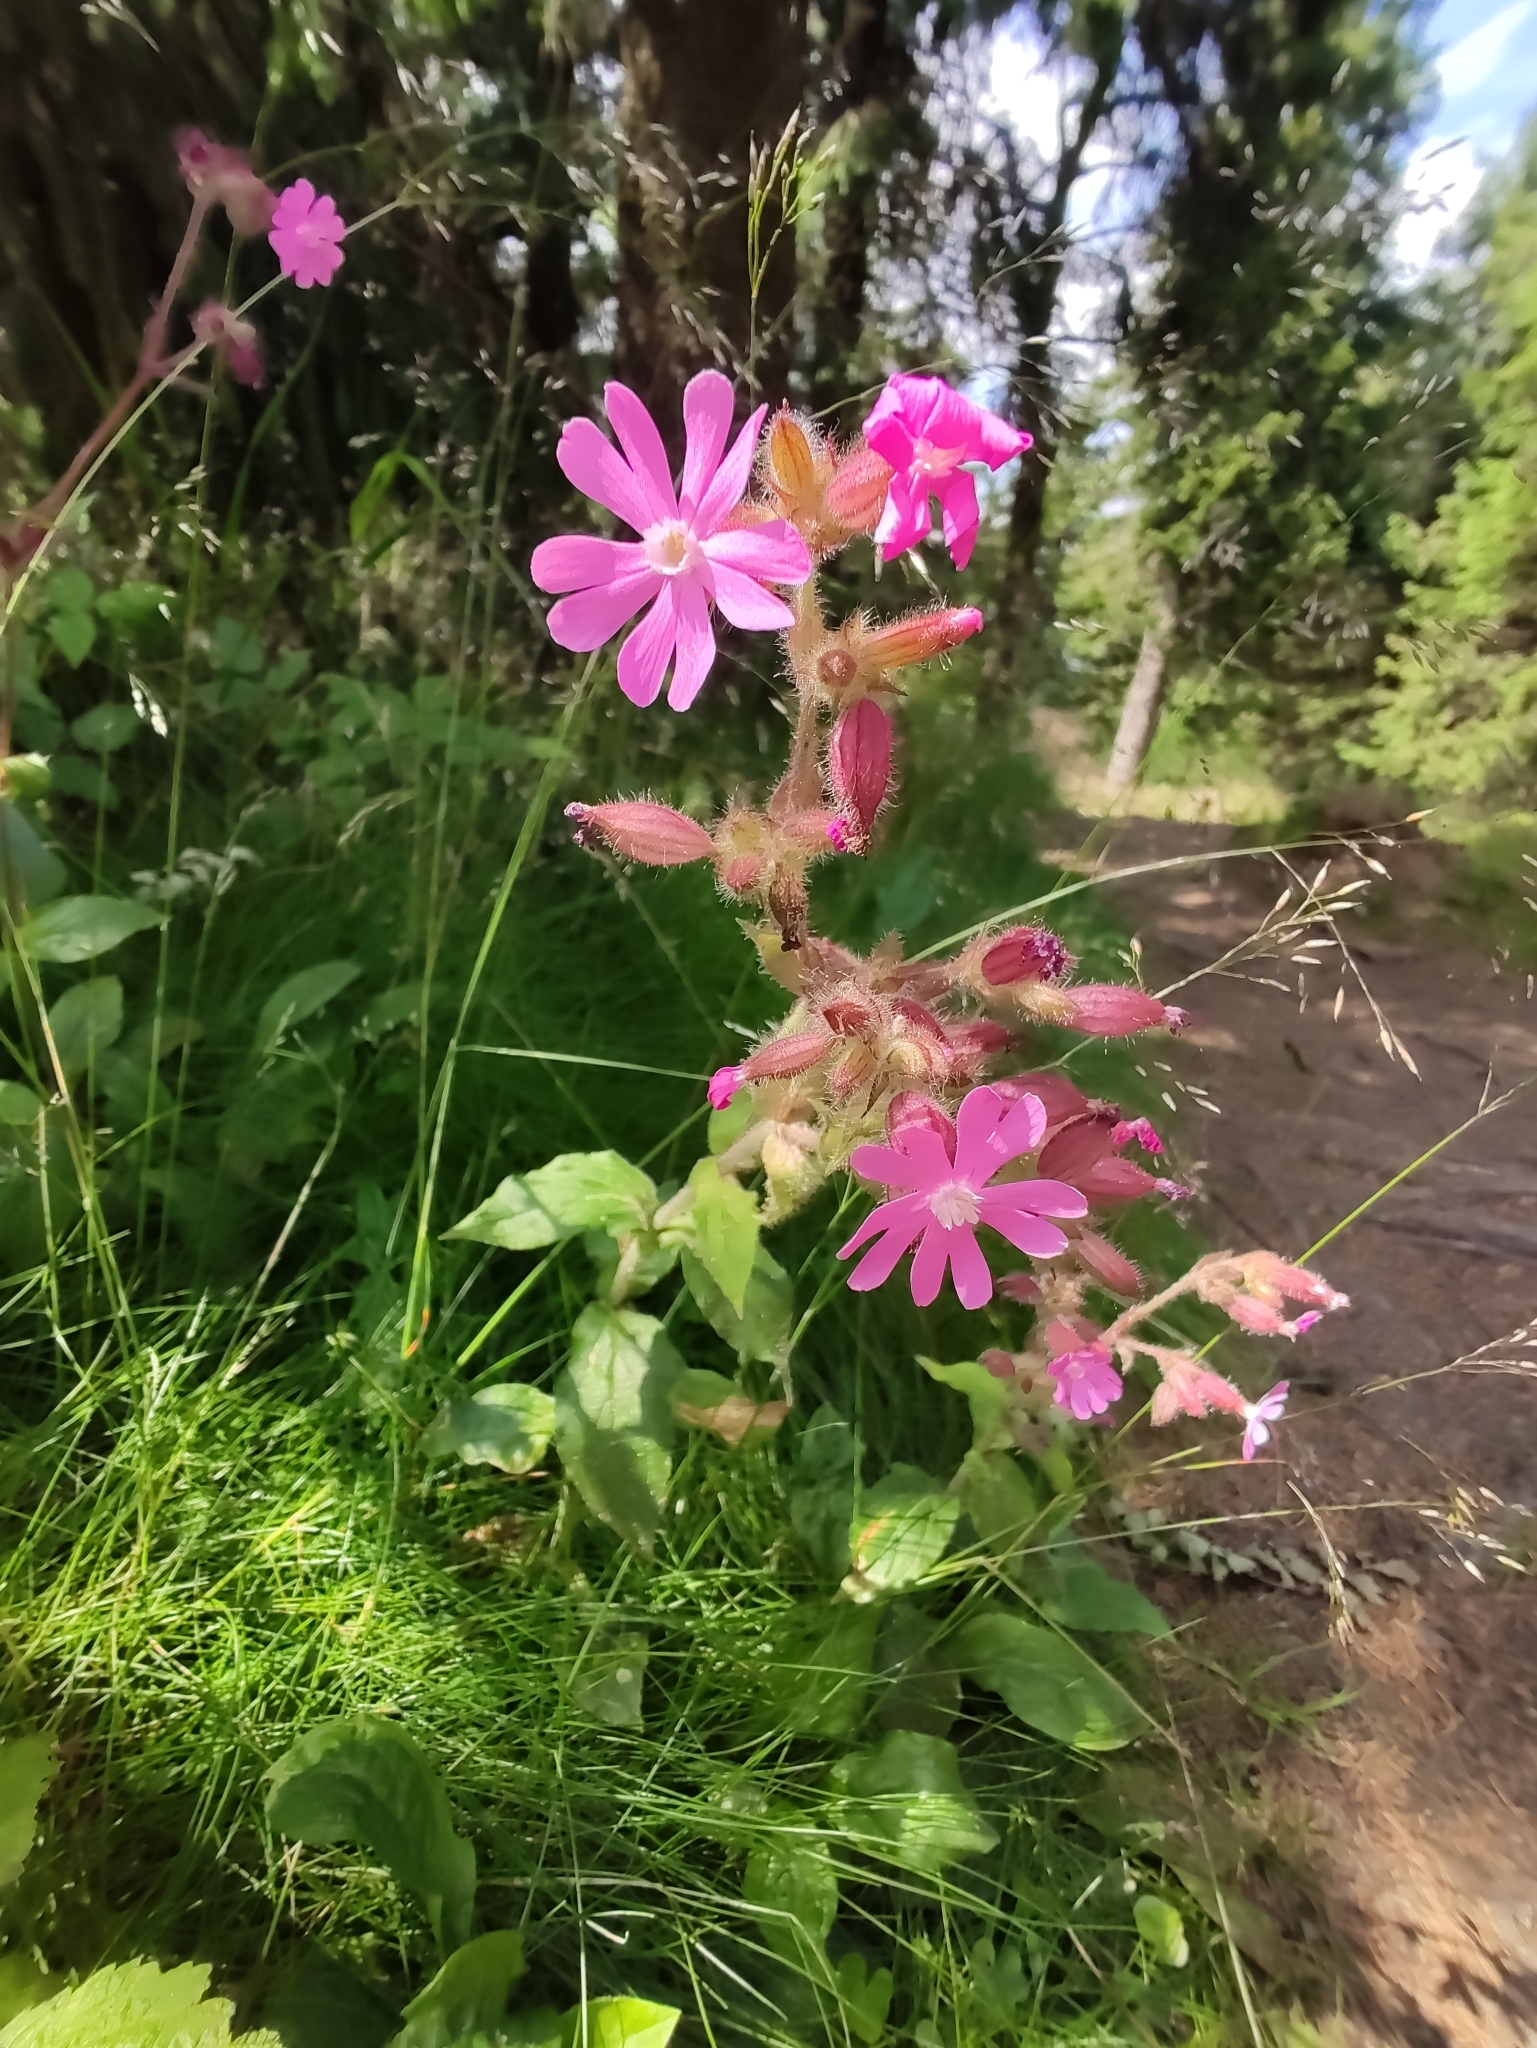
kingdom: Plantae
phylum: Tracheophyta
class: Magnoliopsida
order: Caryophyllales
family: Caryophyllaceae
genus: Silene
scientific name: Silene dioica
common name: Red campion
